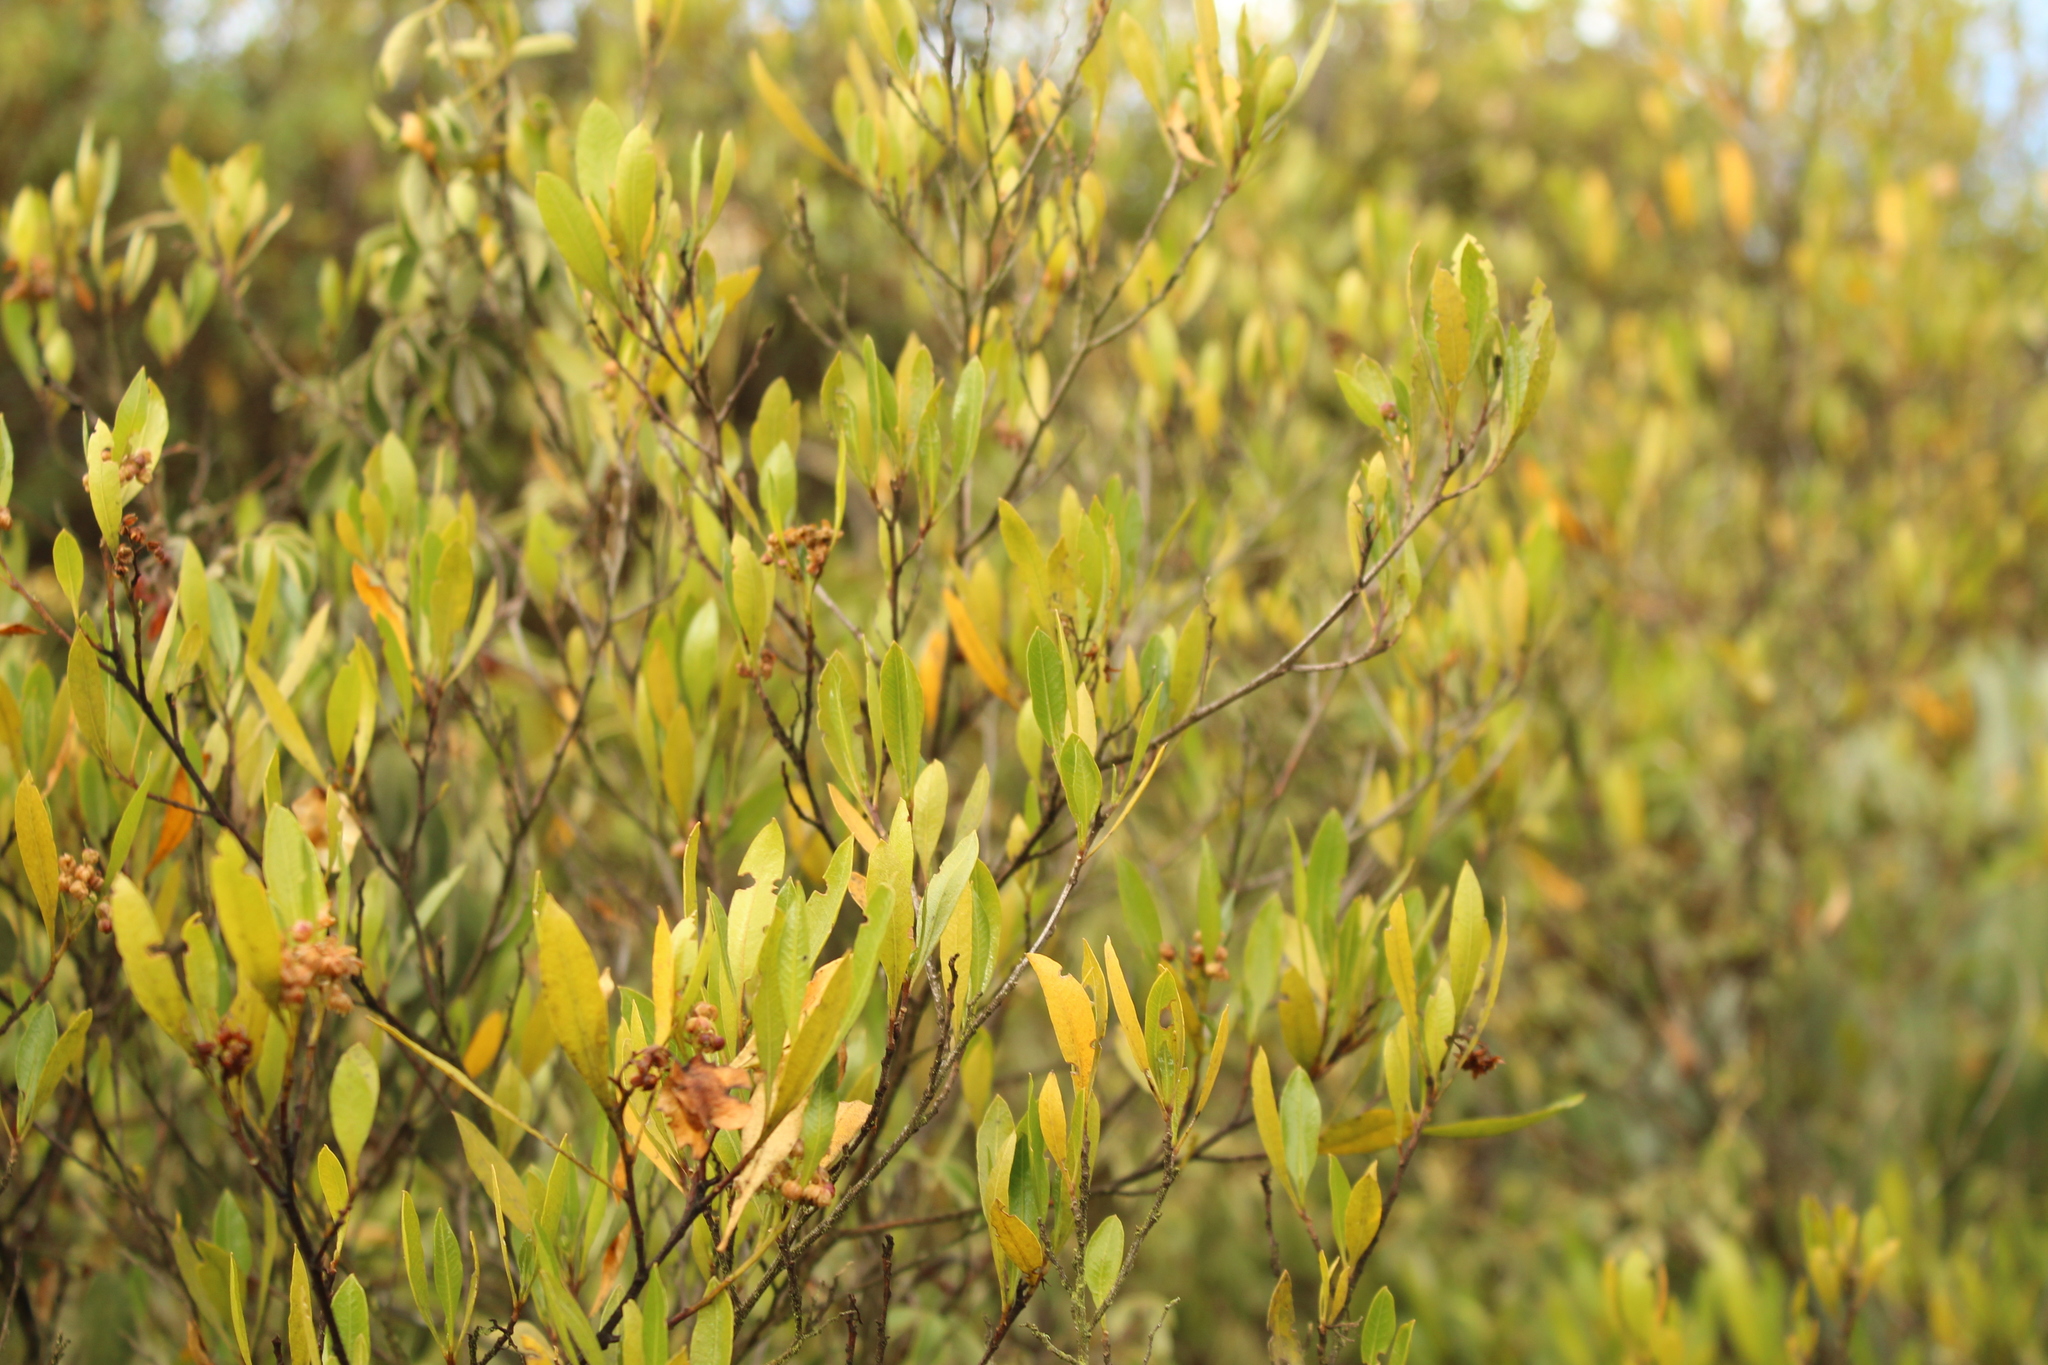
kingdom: Plantae
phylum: Tracheophyta
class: Magnoliopsida
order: Sapindales
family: Sapindaceae
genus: Dodonaea
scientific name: Dodonaea viscosa
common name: Hopbush
